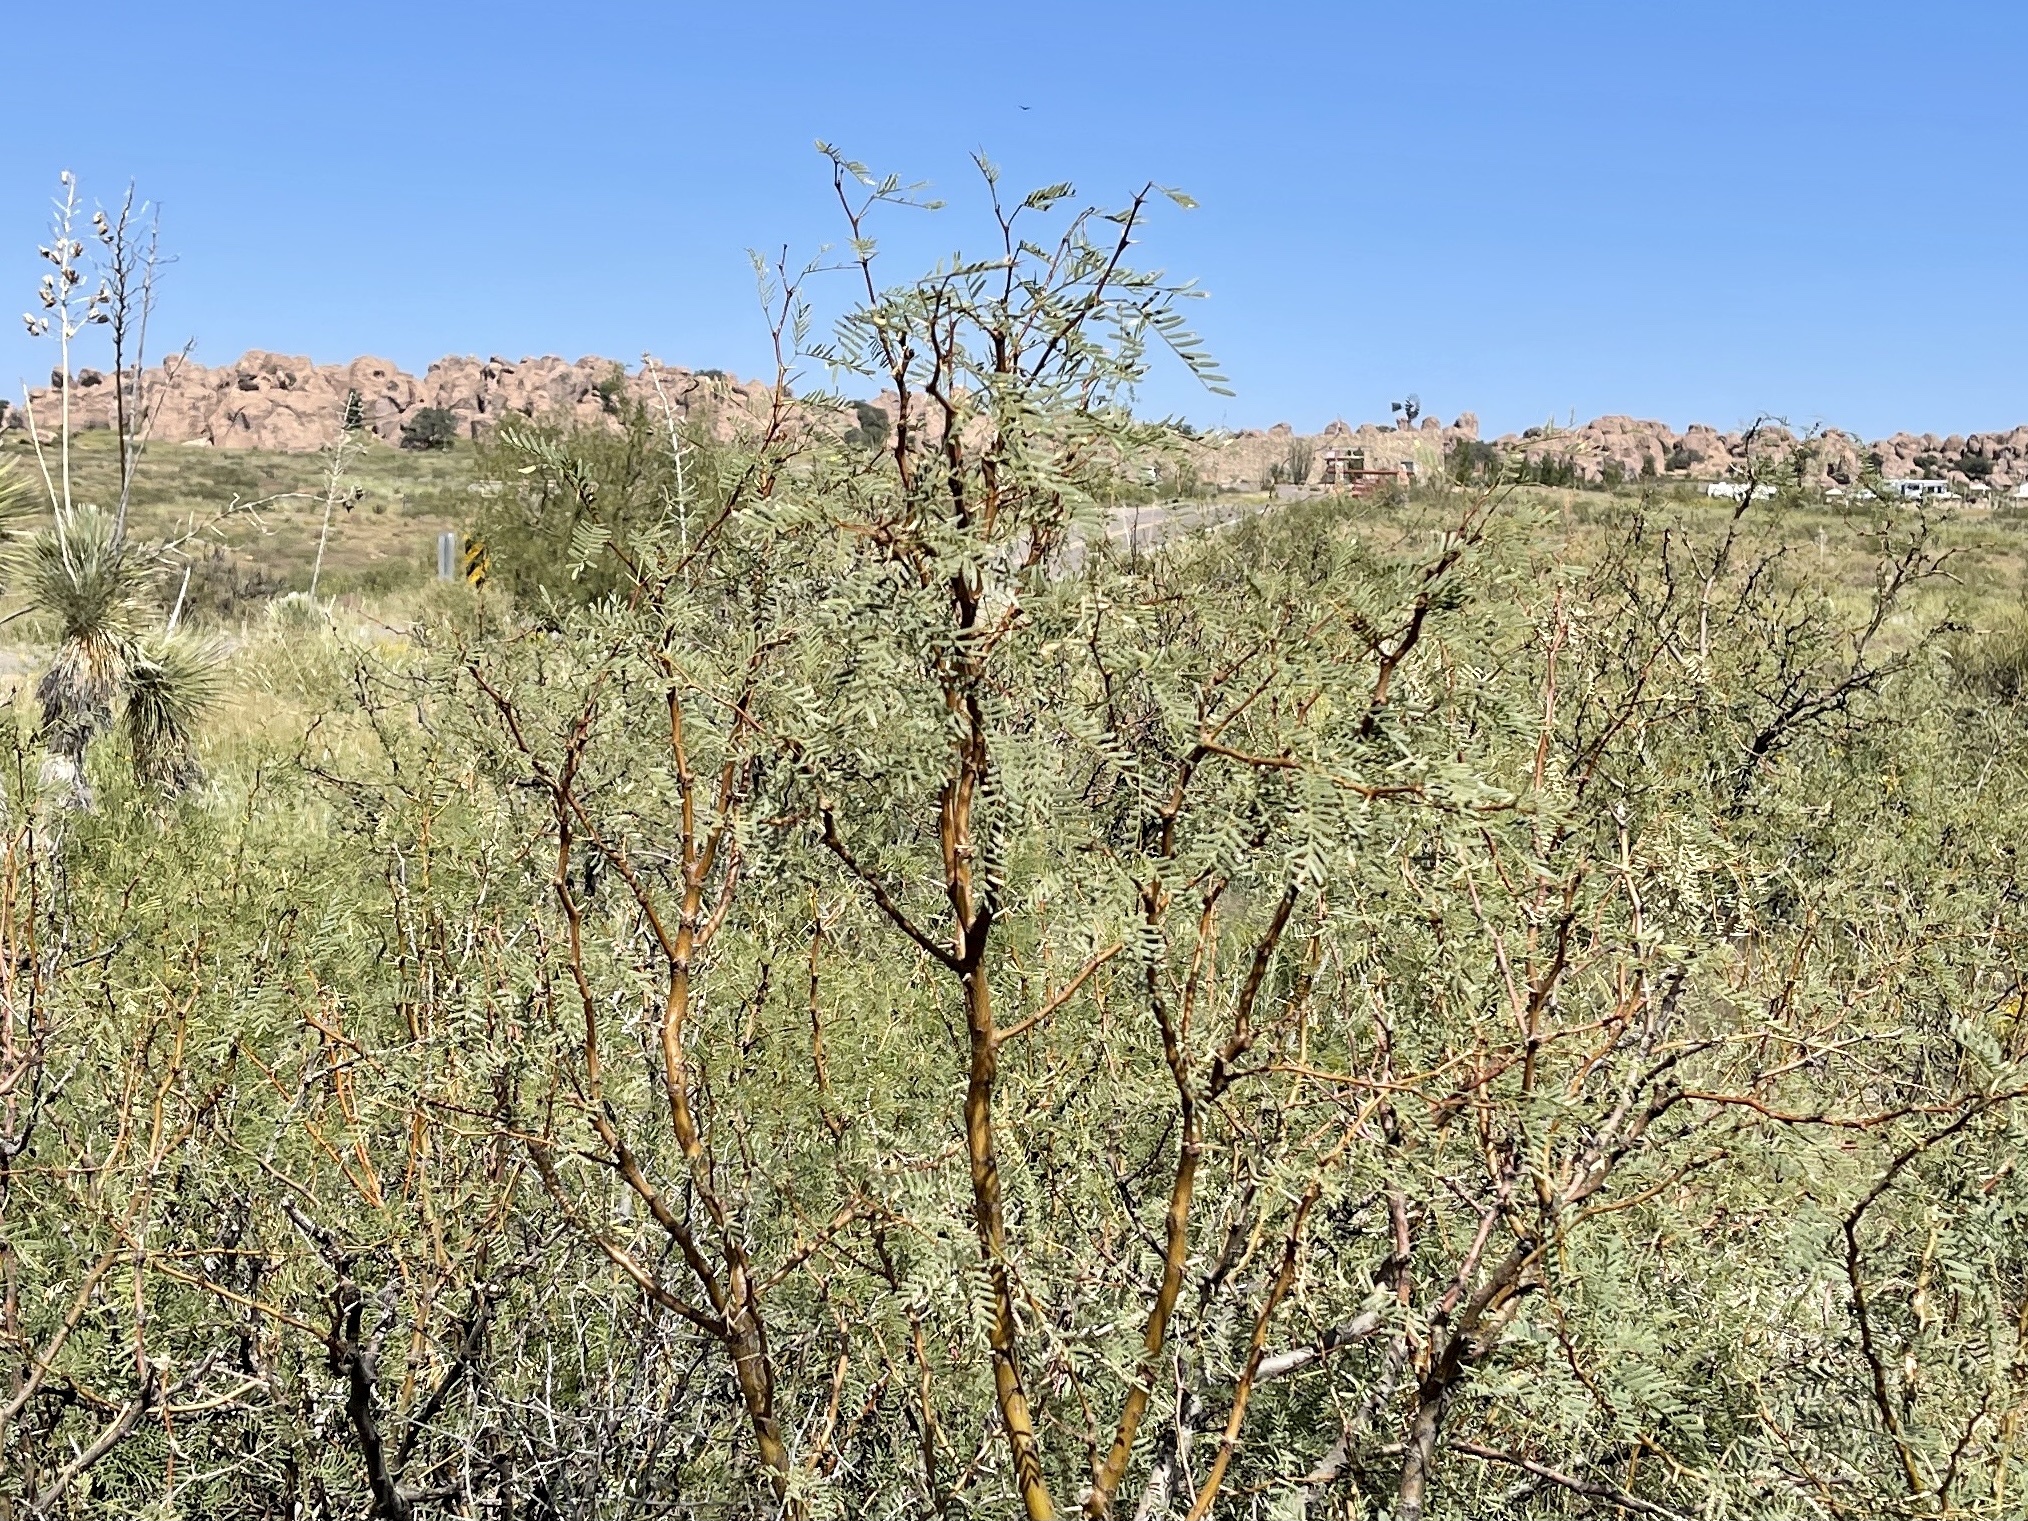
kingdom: Plantae
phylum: Tracheophyta
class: Magnoliopsida
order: Fabales
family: Fabaceae
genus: Prosopis
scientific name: Prosopis glandulosa
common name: Honey mesquite
